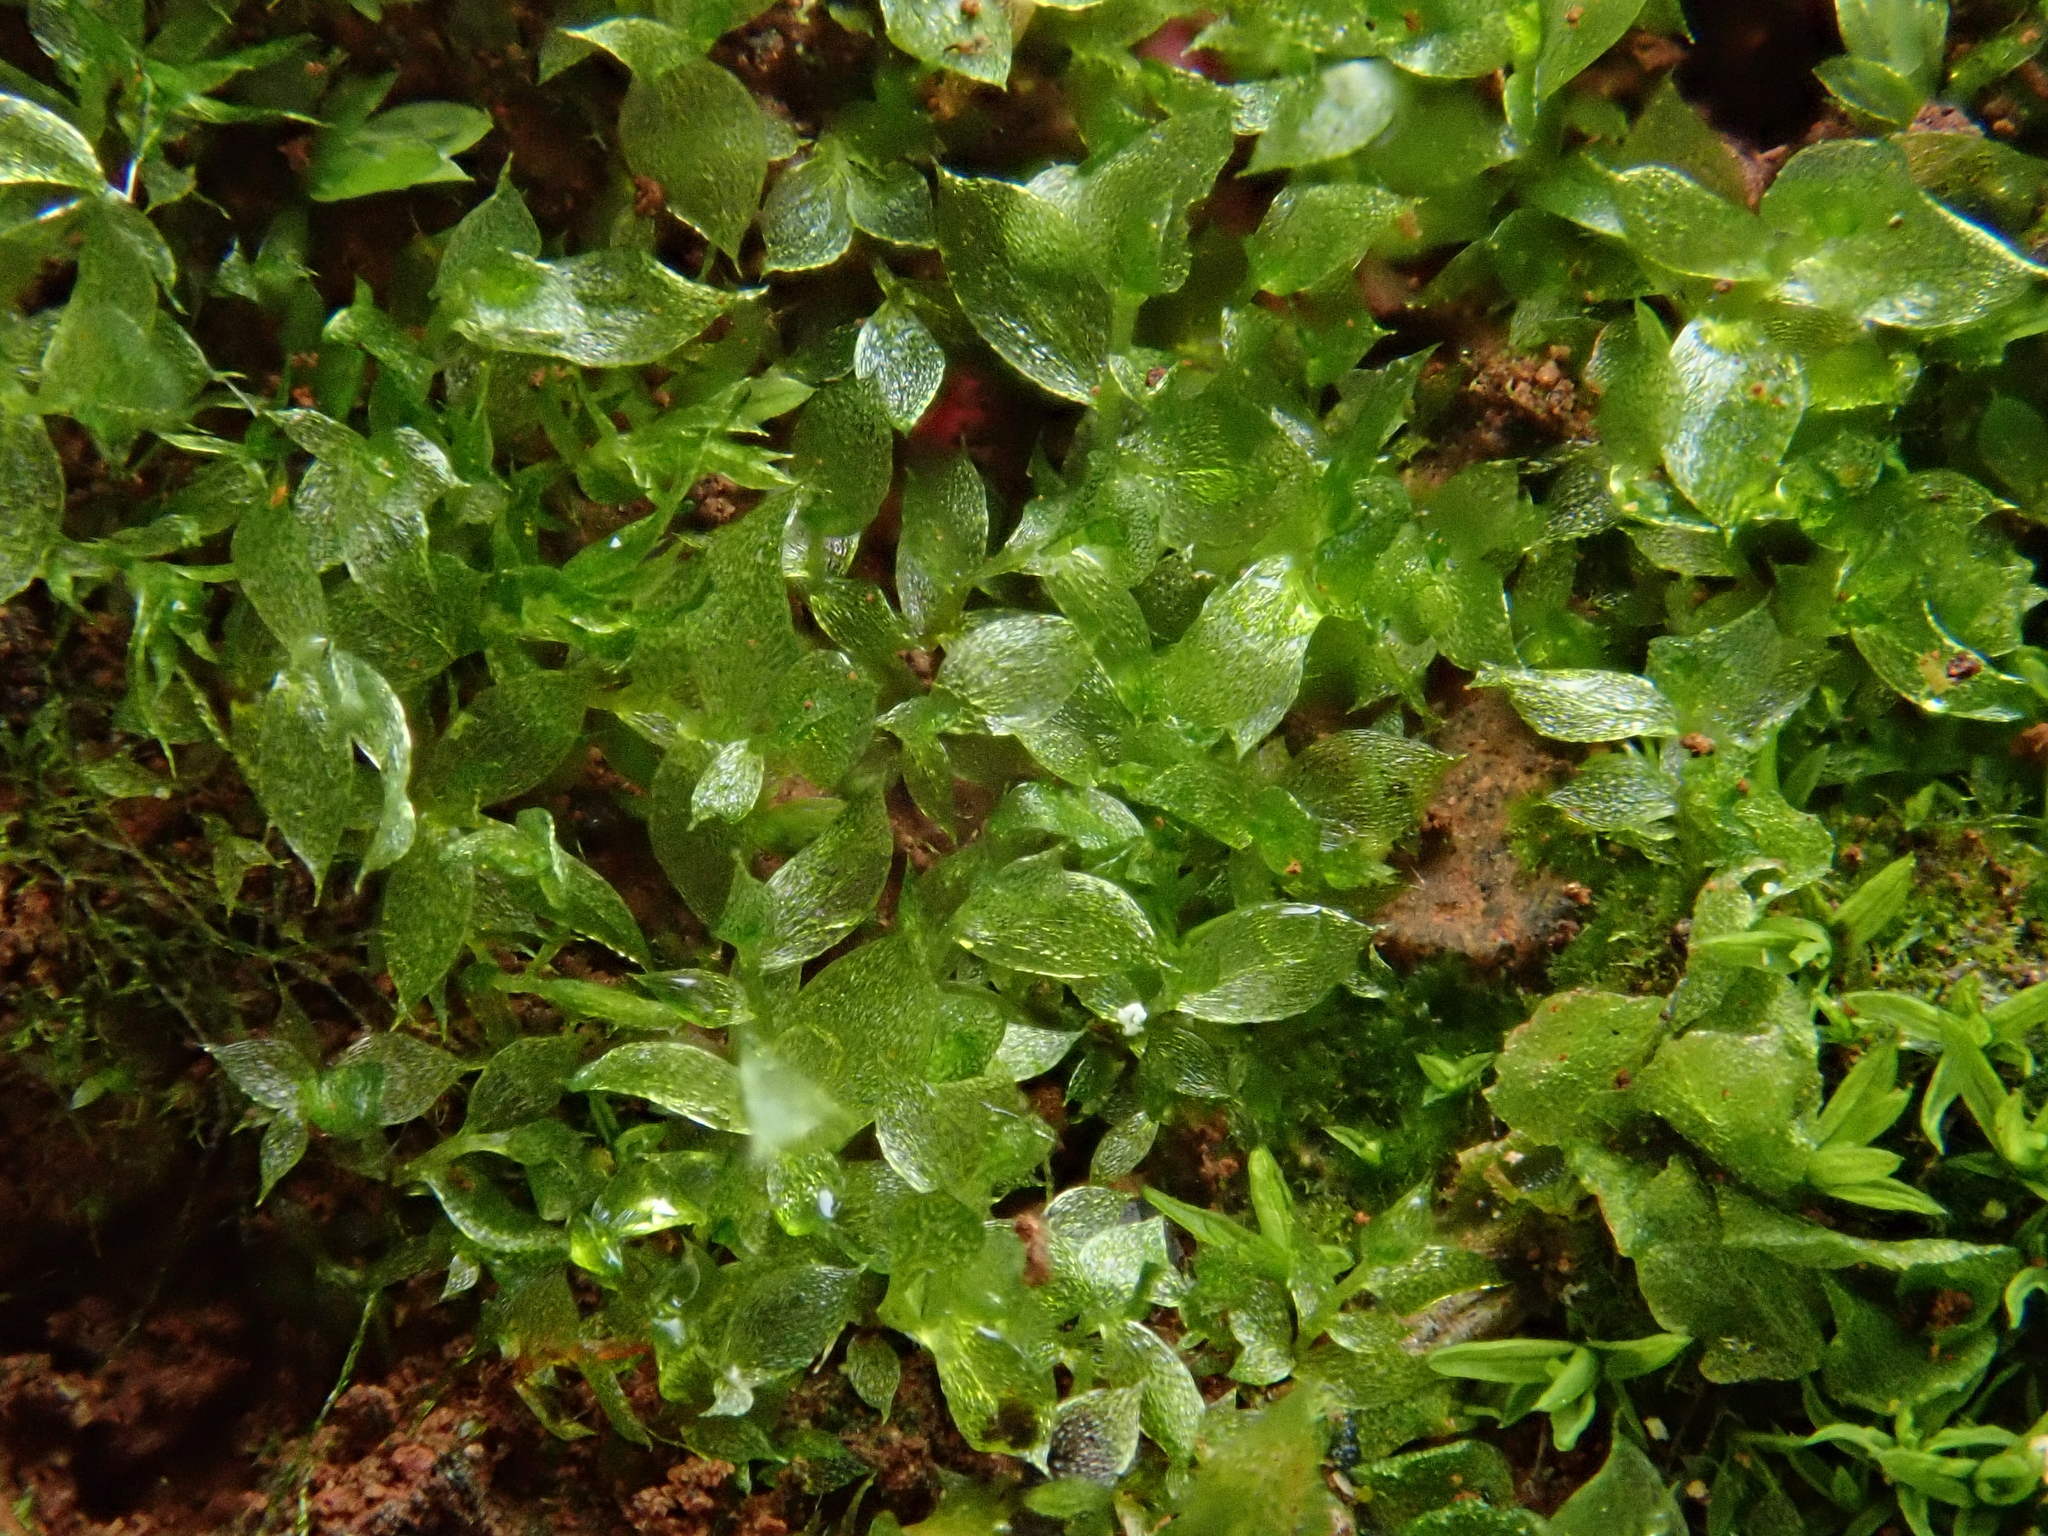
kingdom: Plantae
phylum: Bryophyta
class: Bryopsida
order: Bryales
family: Mniaceae
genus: Epipterygium
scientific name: Epipterygium tozeri
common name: Tozer's thread-moss
